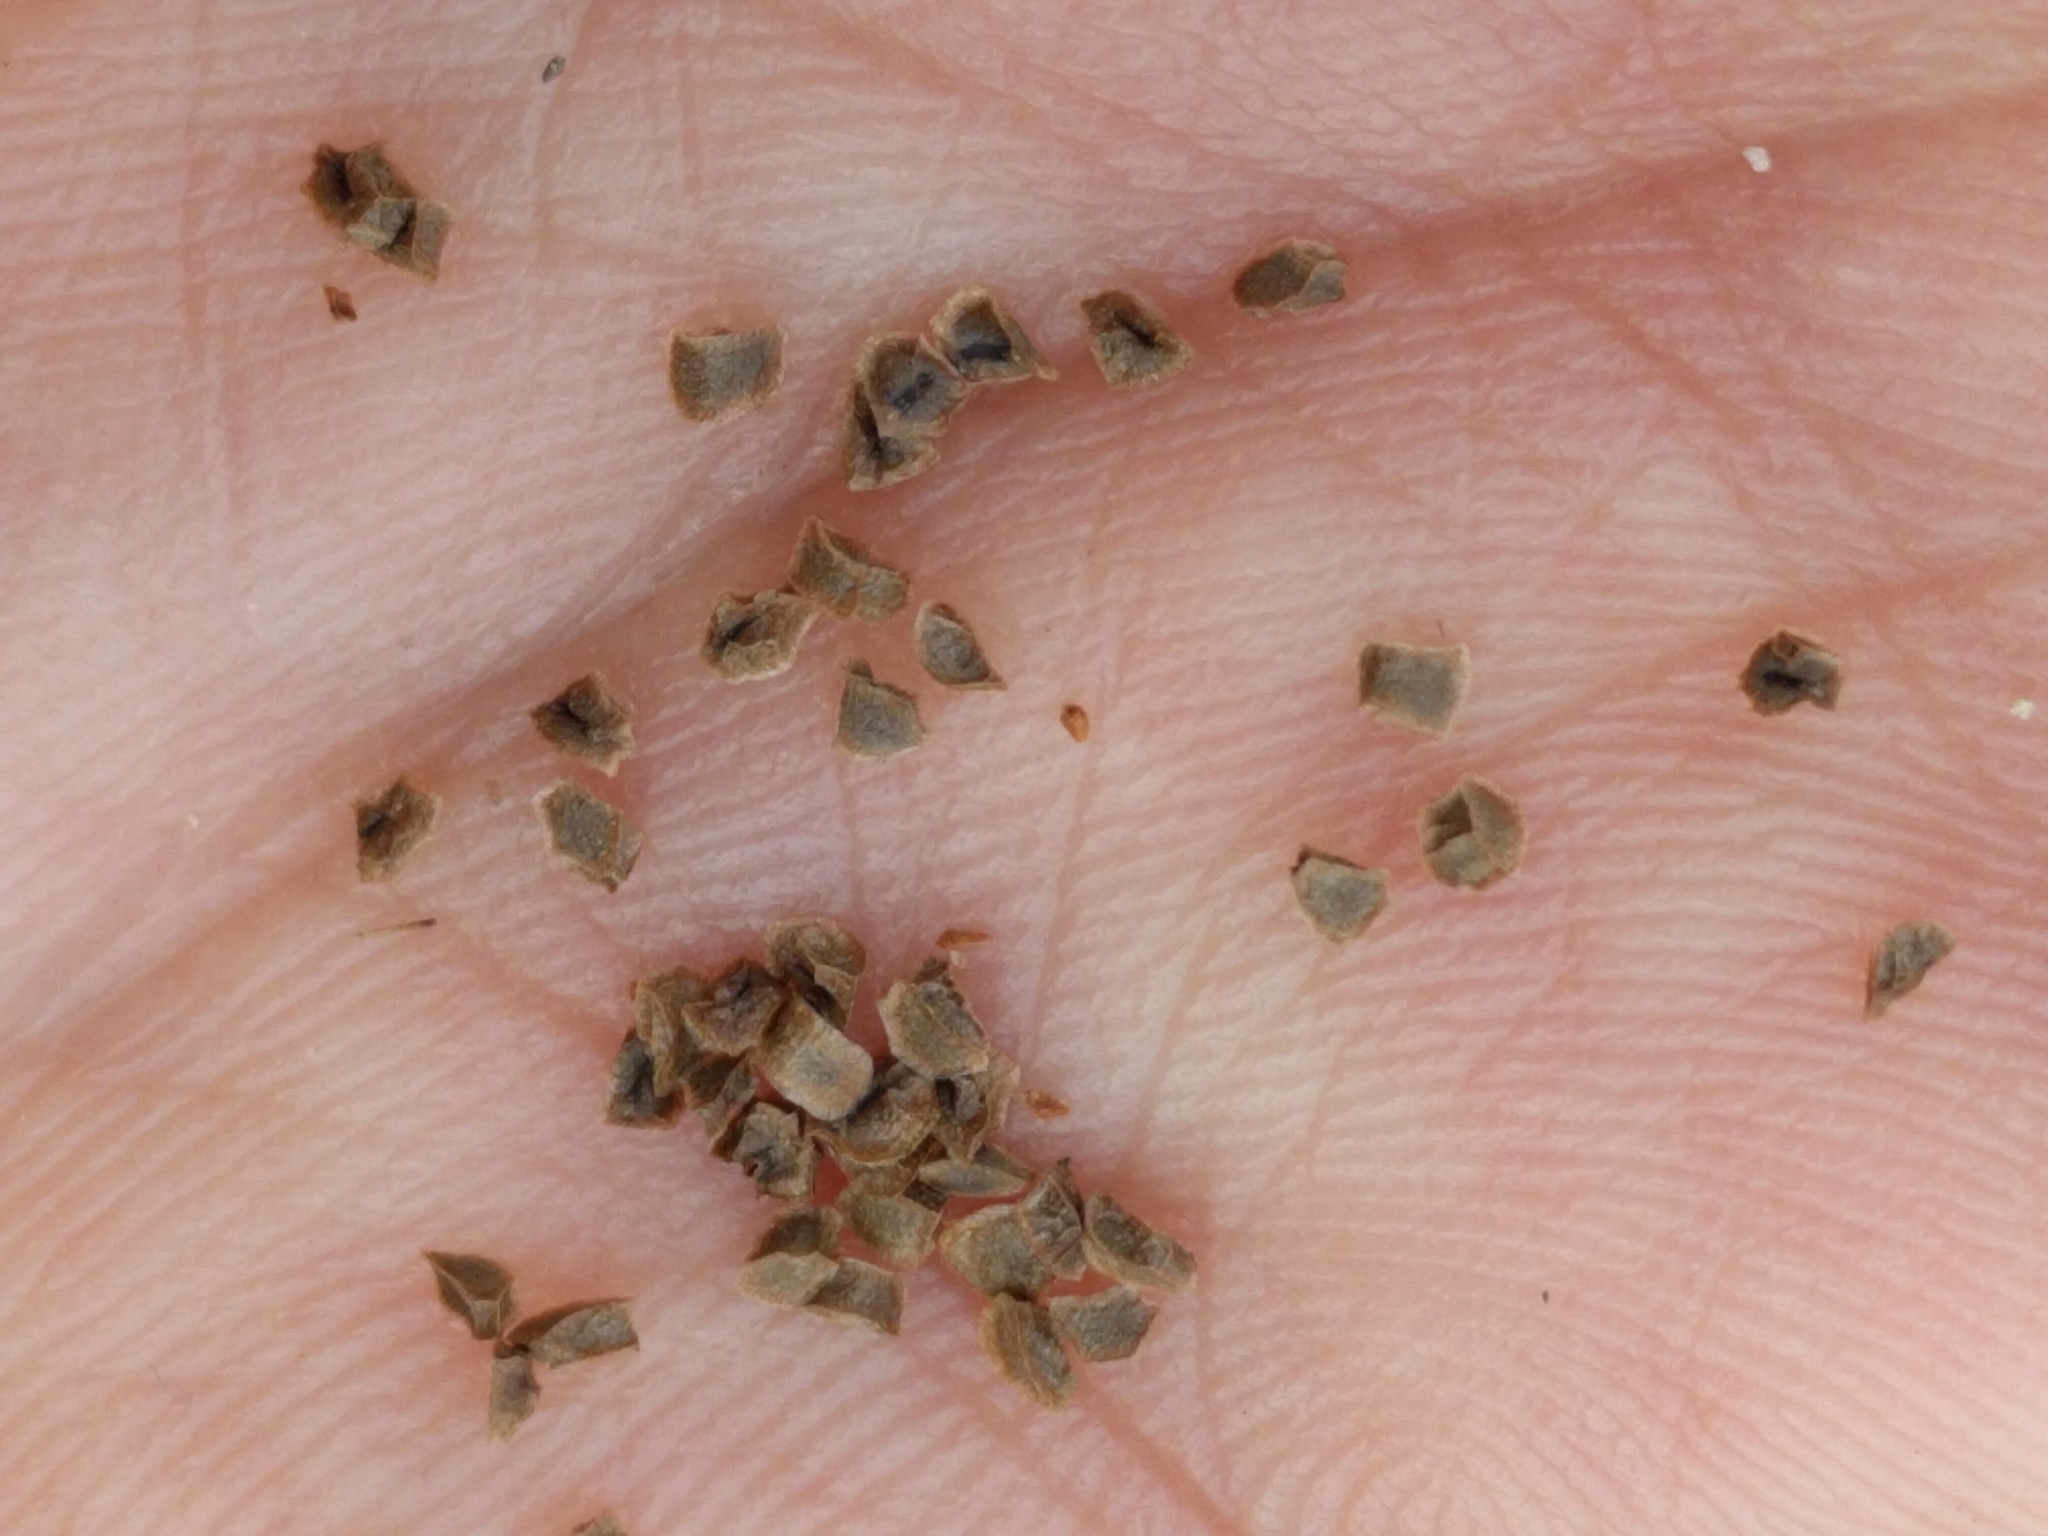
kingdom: Plantae
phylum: Tracheophyta
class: Magnoliopsida
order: Lamiales
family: Plantaginaceae
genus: Penstemon
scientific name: Penstemon newberryi
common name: Mountain-pride
